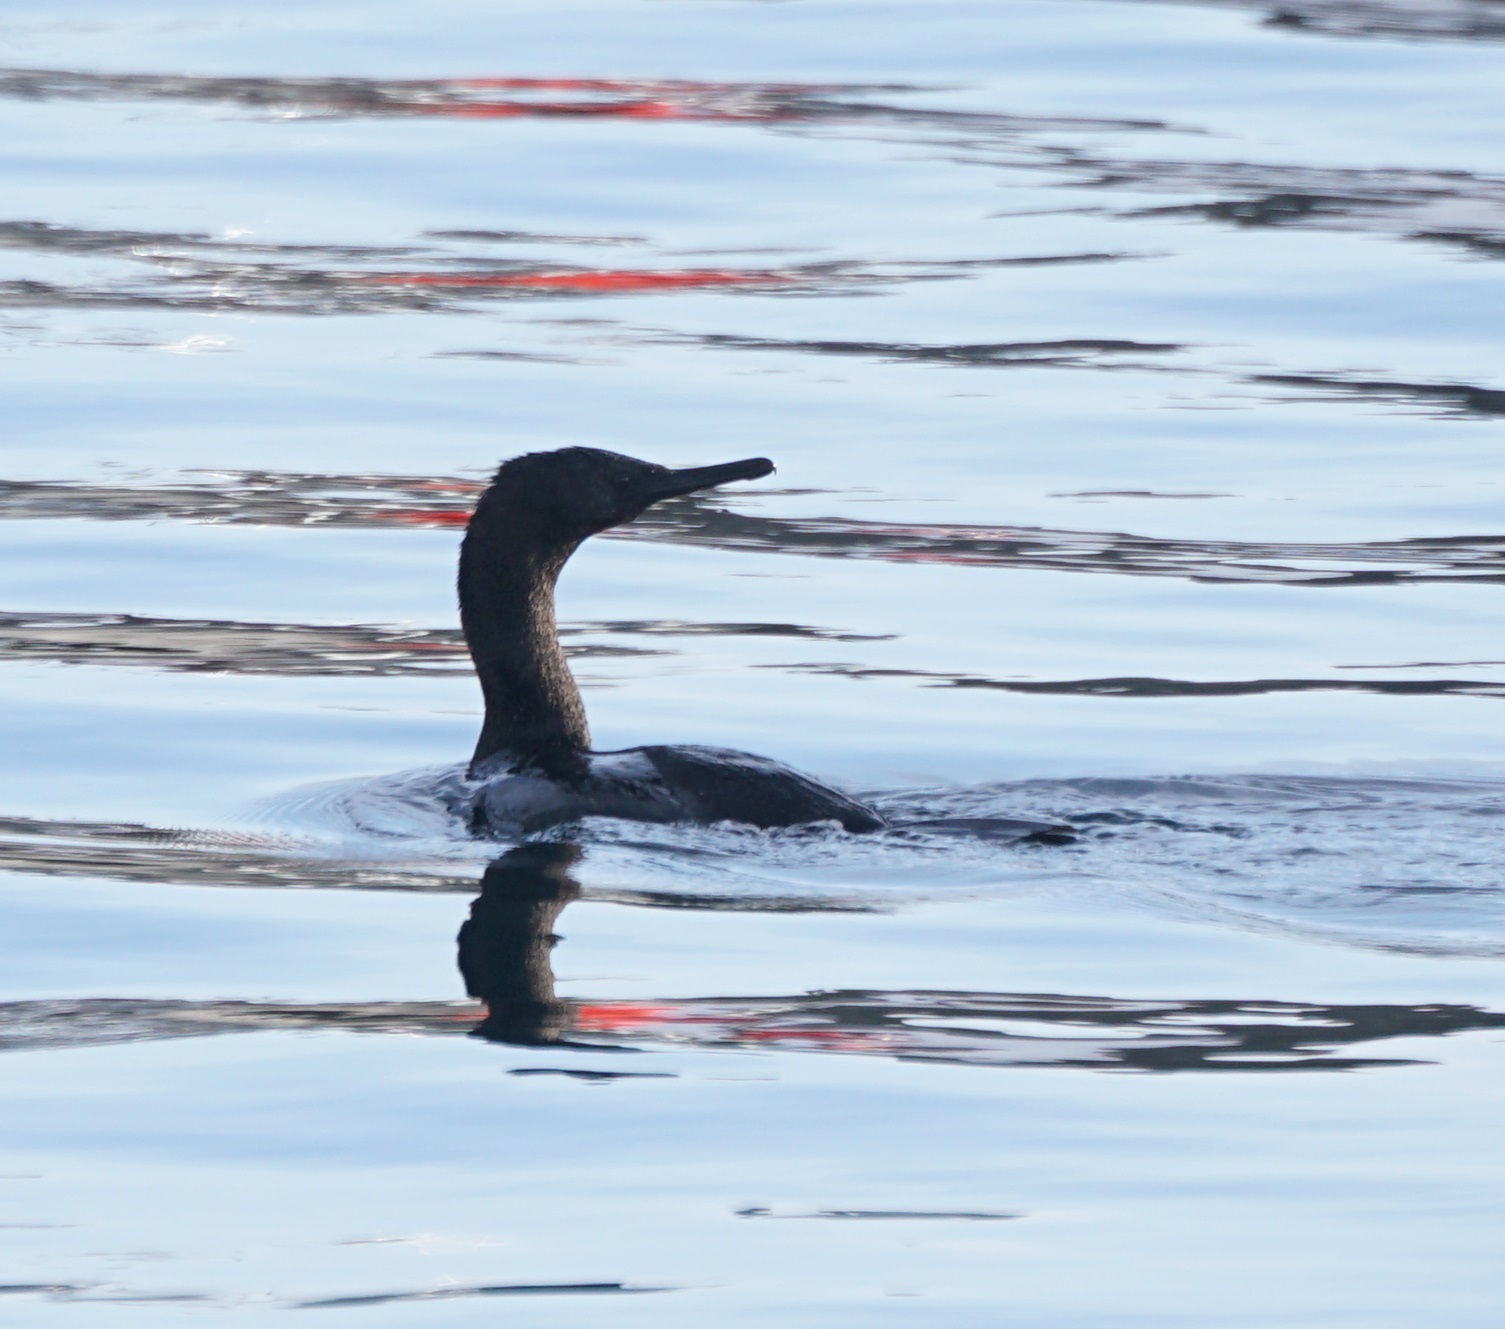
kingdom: Animalia
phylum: Chordata
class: Aves
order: Suliformes
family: Phalacrocoracidae
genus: Phalacrocorax
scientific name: Phalacrocorax pelagicus
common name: Pelagic cormorant
